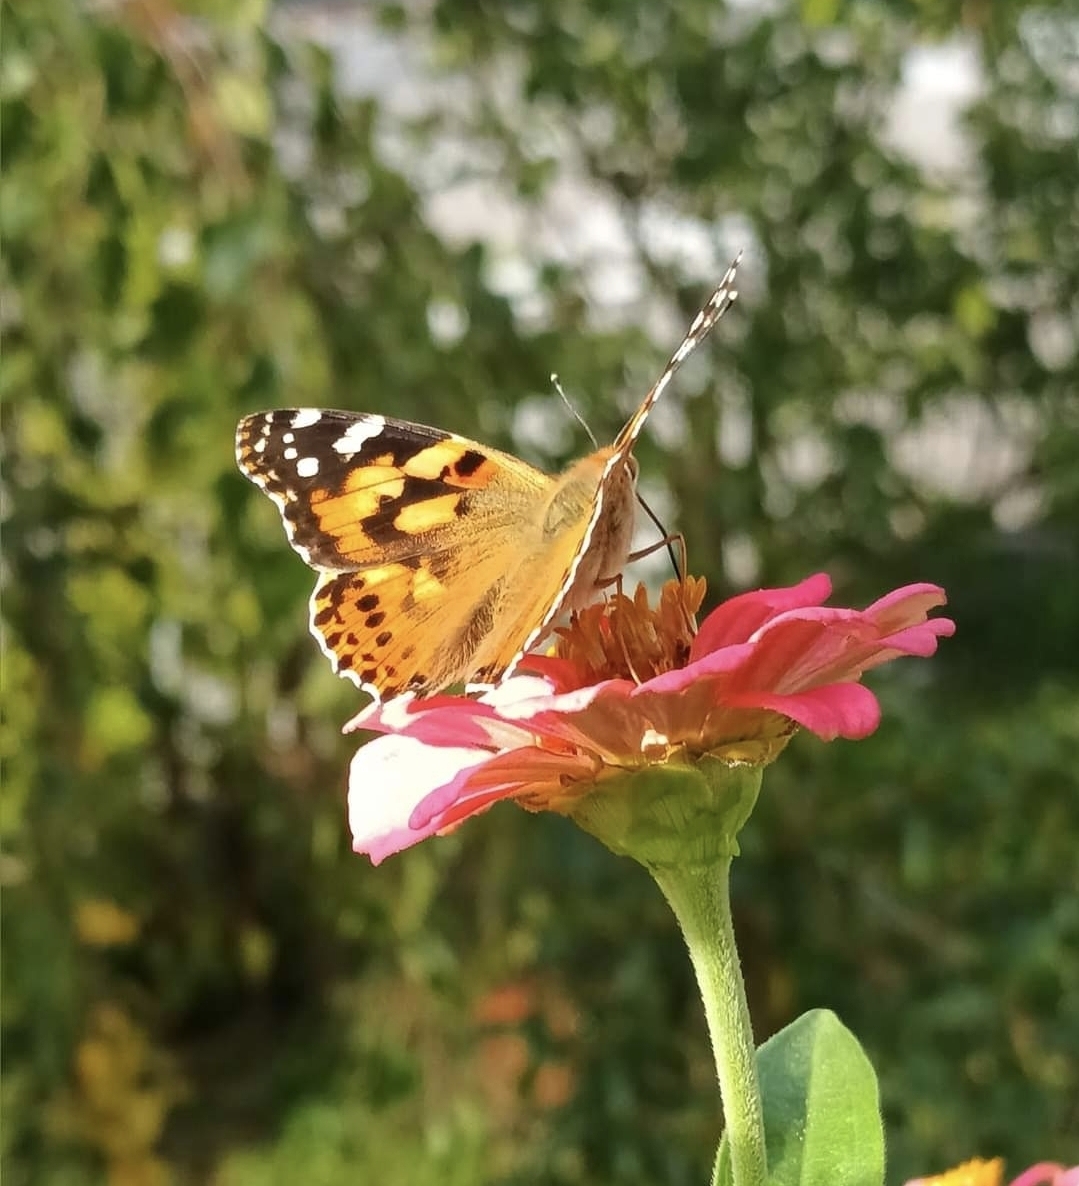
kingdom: Animalia
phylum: Arthropoda
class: Insecta
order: Lepidoptera
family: Nymphalidae
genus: Vanessa
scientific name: Vanessa cardui
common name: Painted lady
